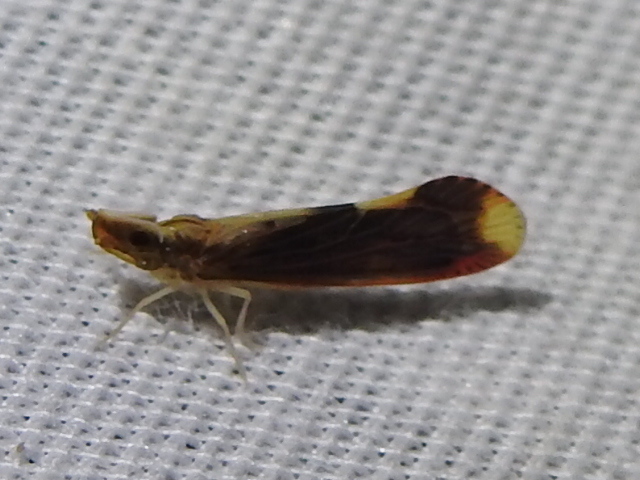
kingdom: Animalia
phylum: Arthropoda
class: Insecta
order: Hemiptera
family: Derbidae
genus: Otiocerus
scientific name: Otiocerus stollii
